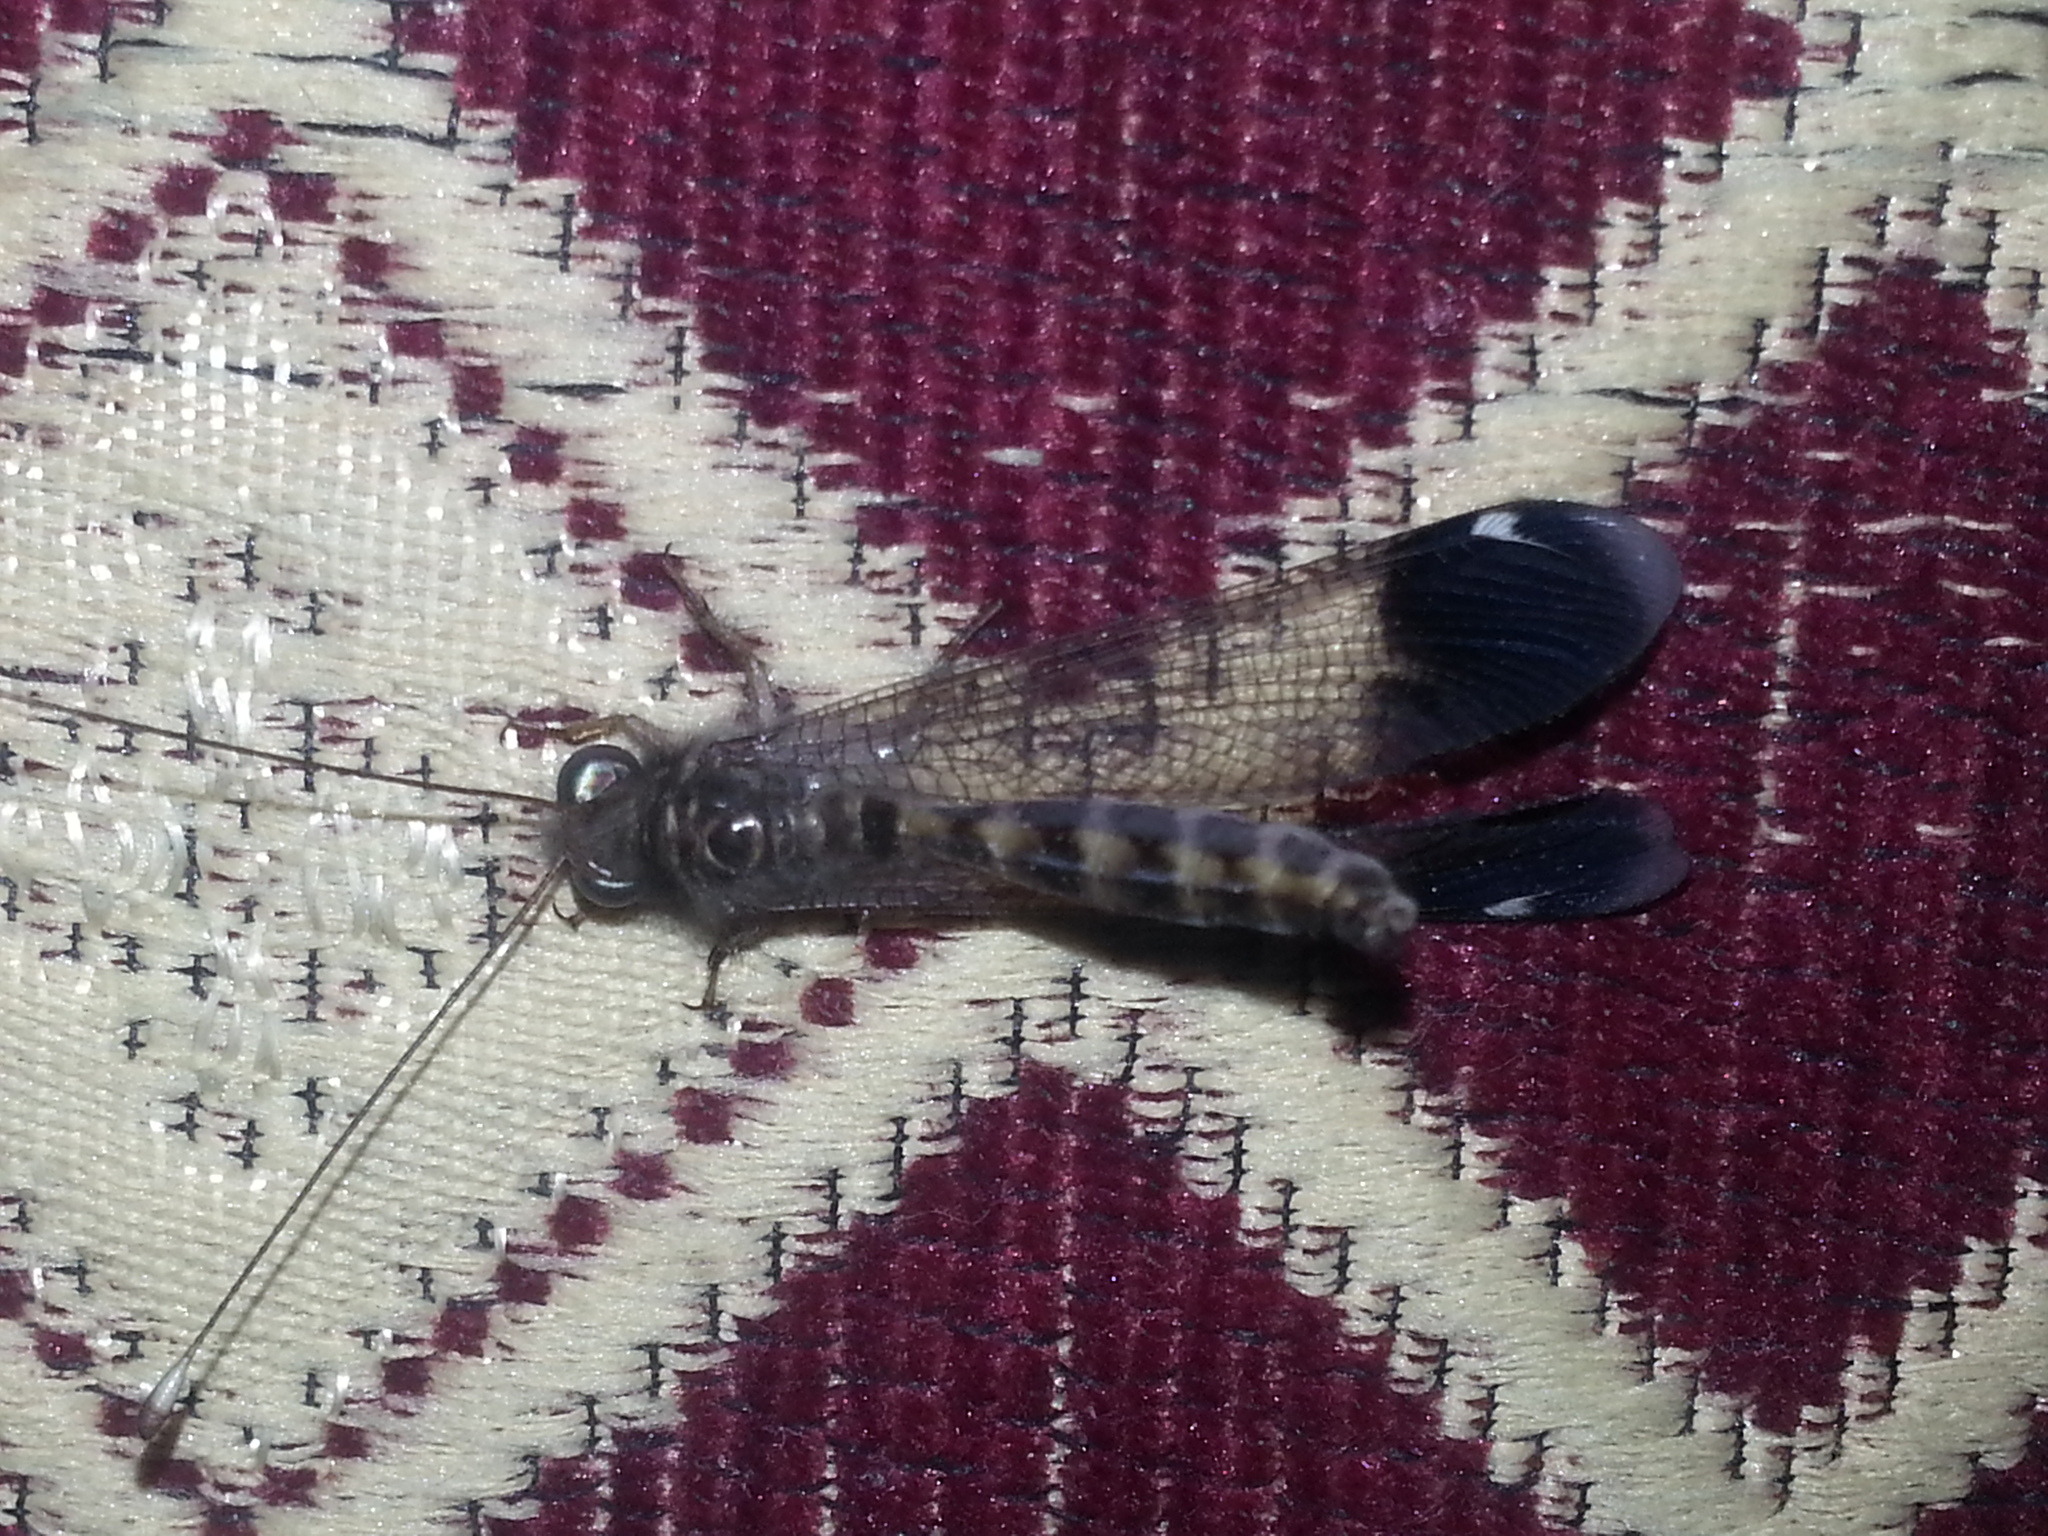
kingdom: Animalia
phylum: Arthropoda
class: Insecta
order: Neuroptera
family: Ascalaphidae
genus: Ptyngidricerus
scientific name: Ptyngidricerus venustus
